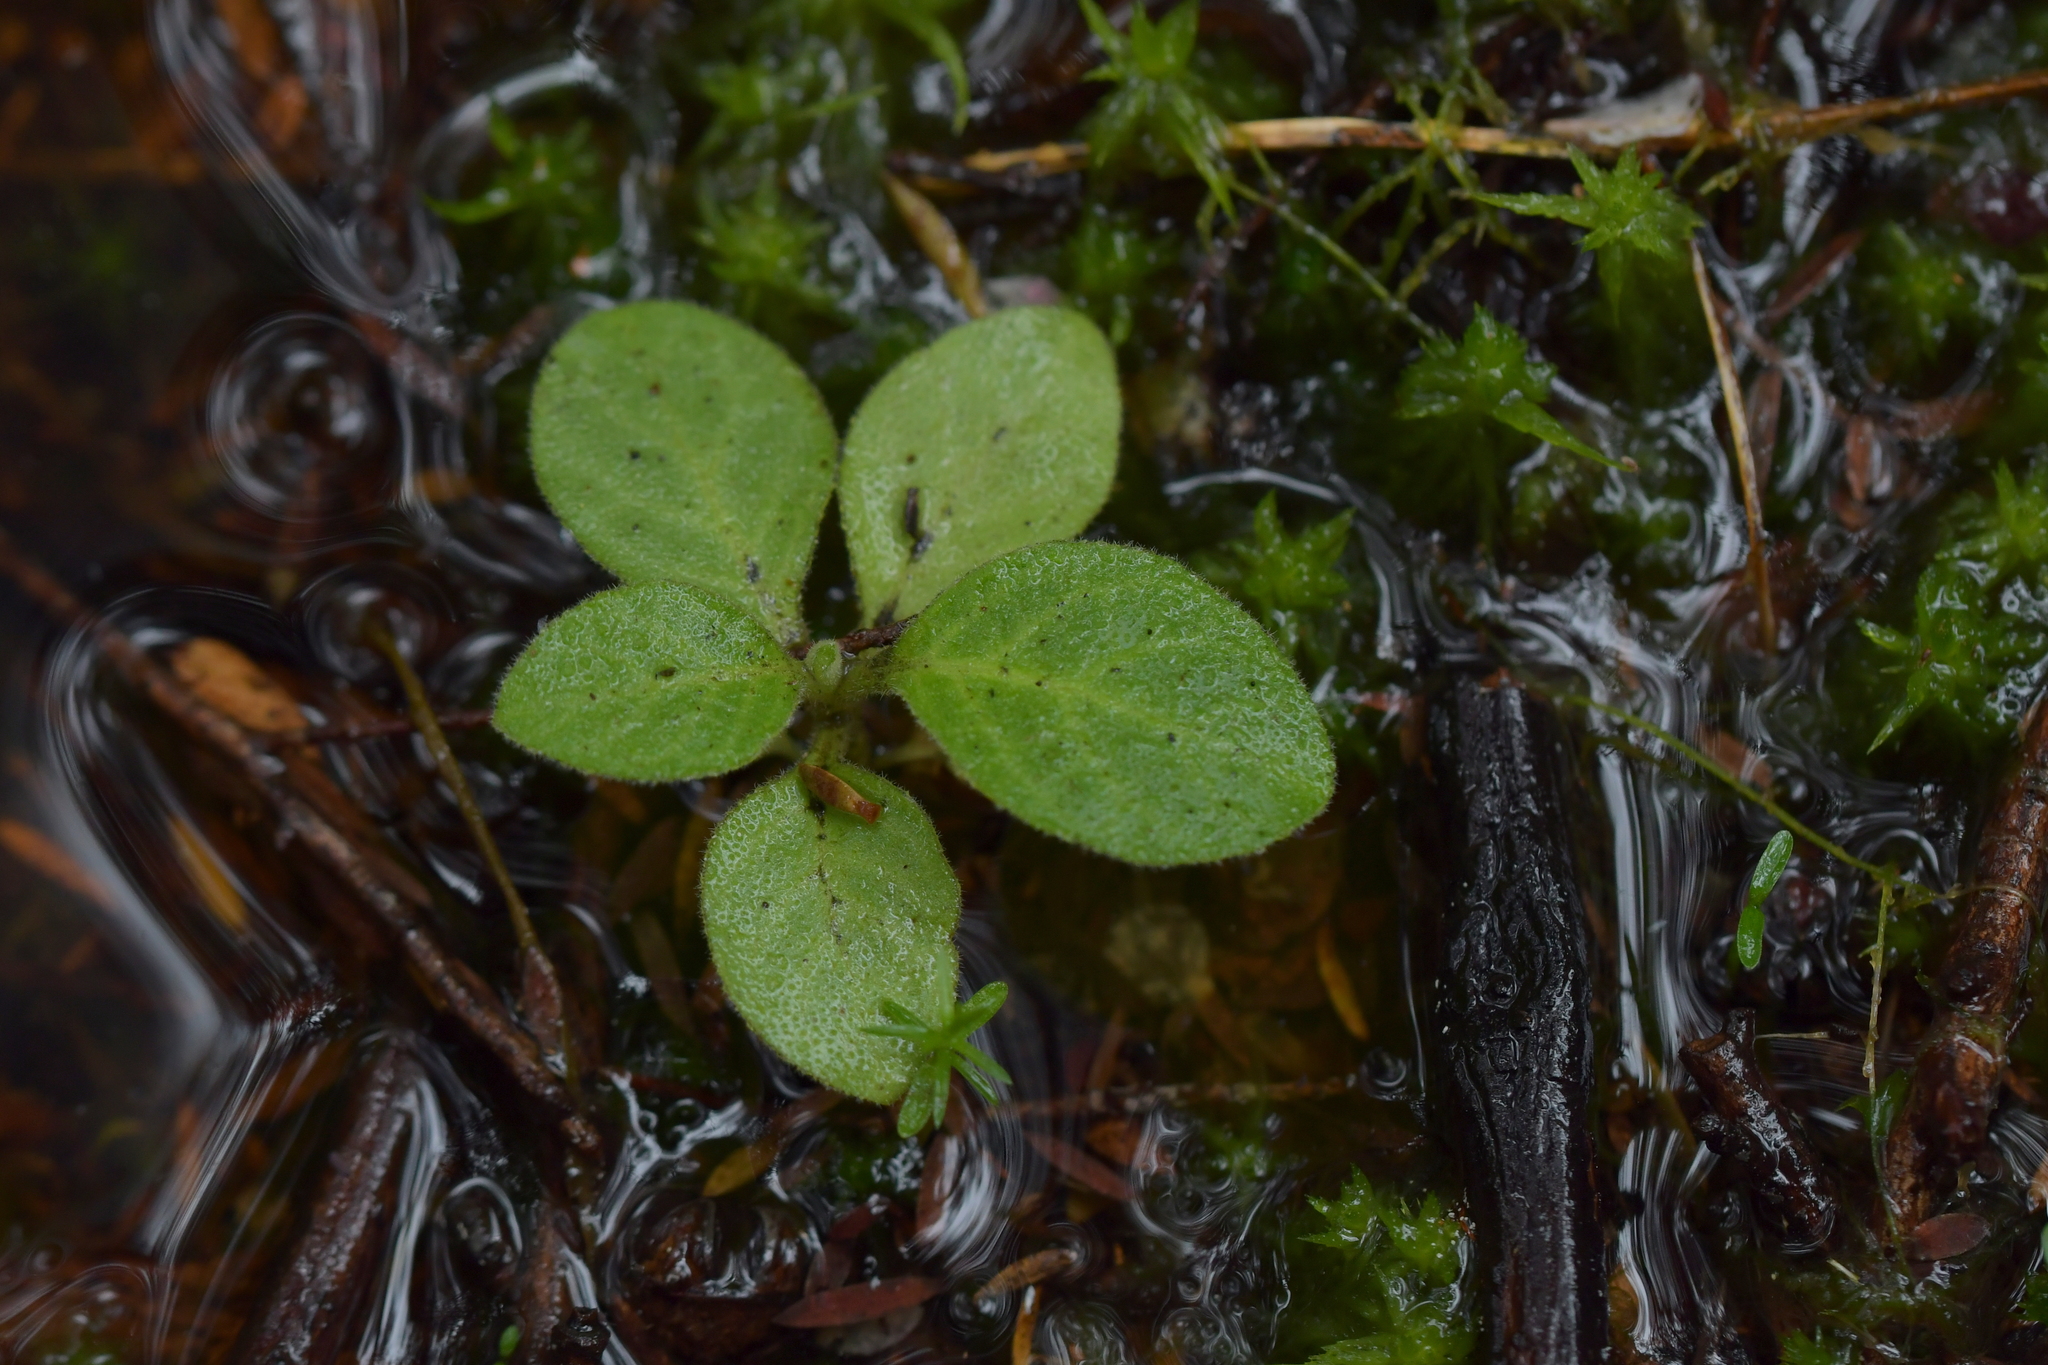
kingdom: Plantae
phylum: Tracheophyta
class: Magnoliopsida
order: Solanales
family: Solanaceae
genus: Solanum
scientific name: Solanum mauritianum
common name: Earleaf nightshade
